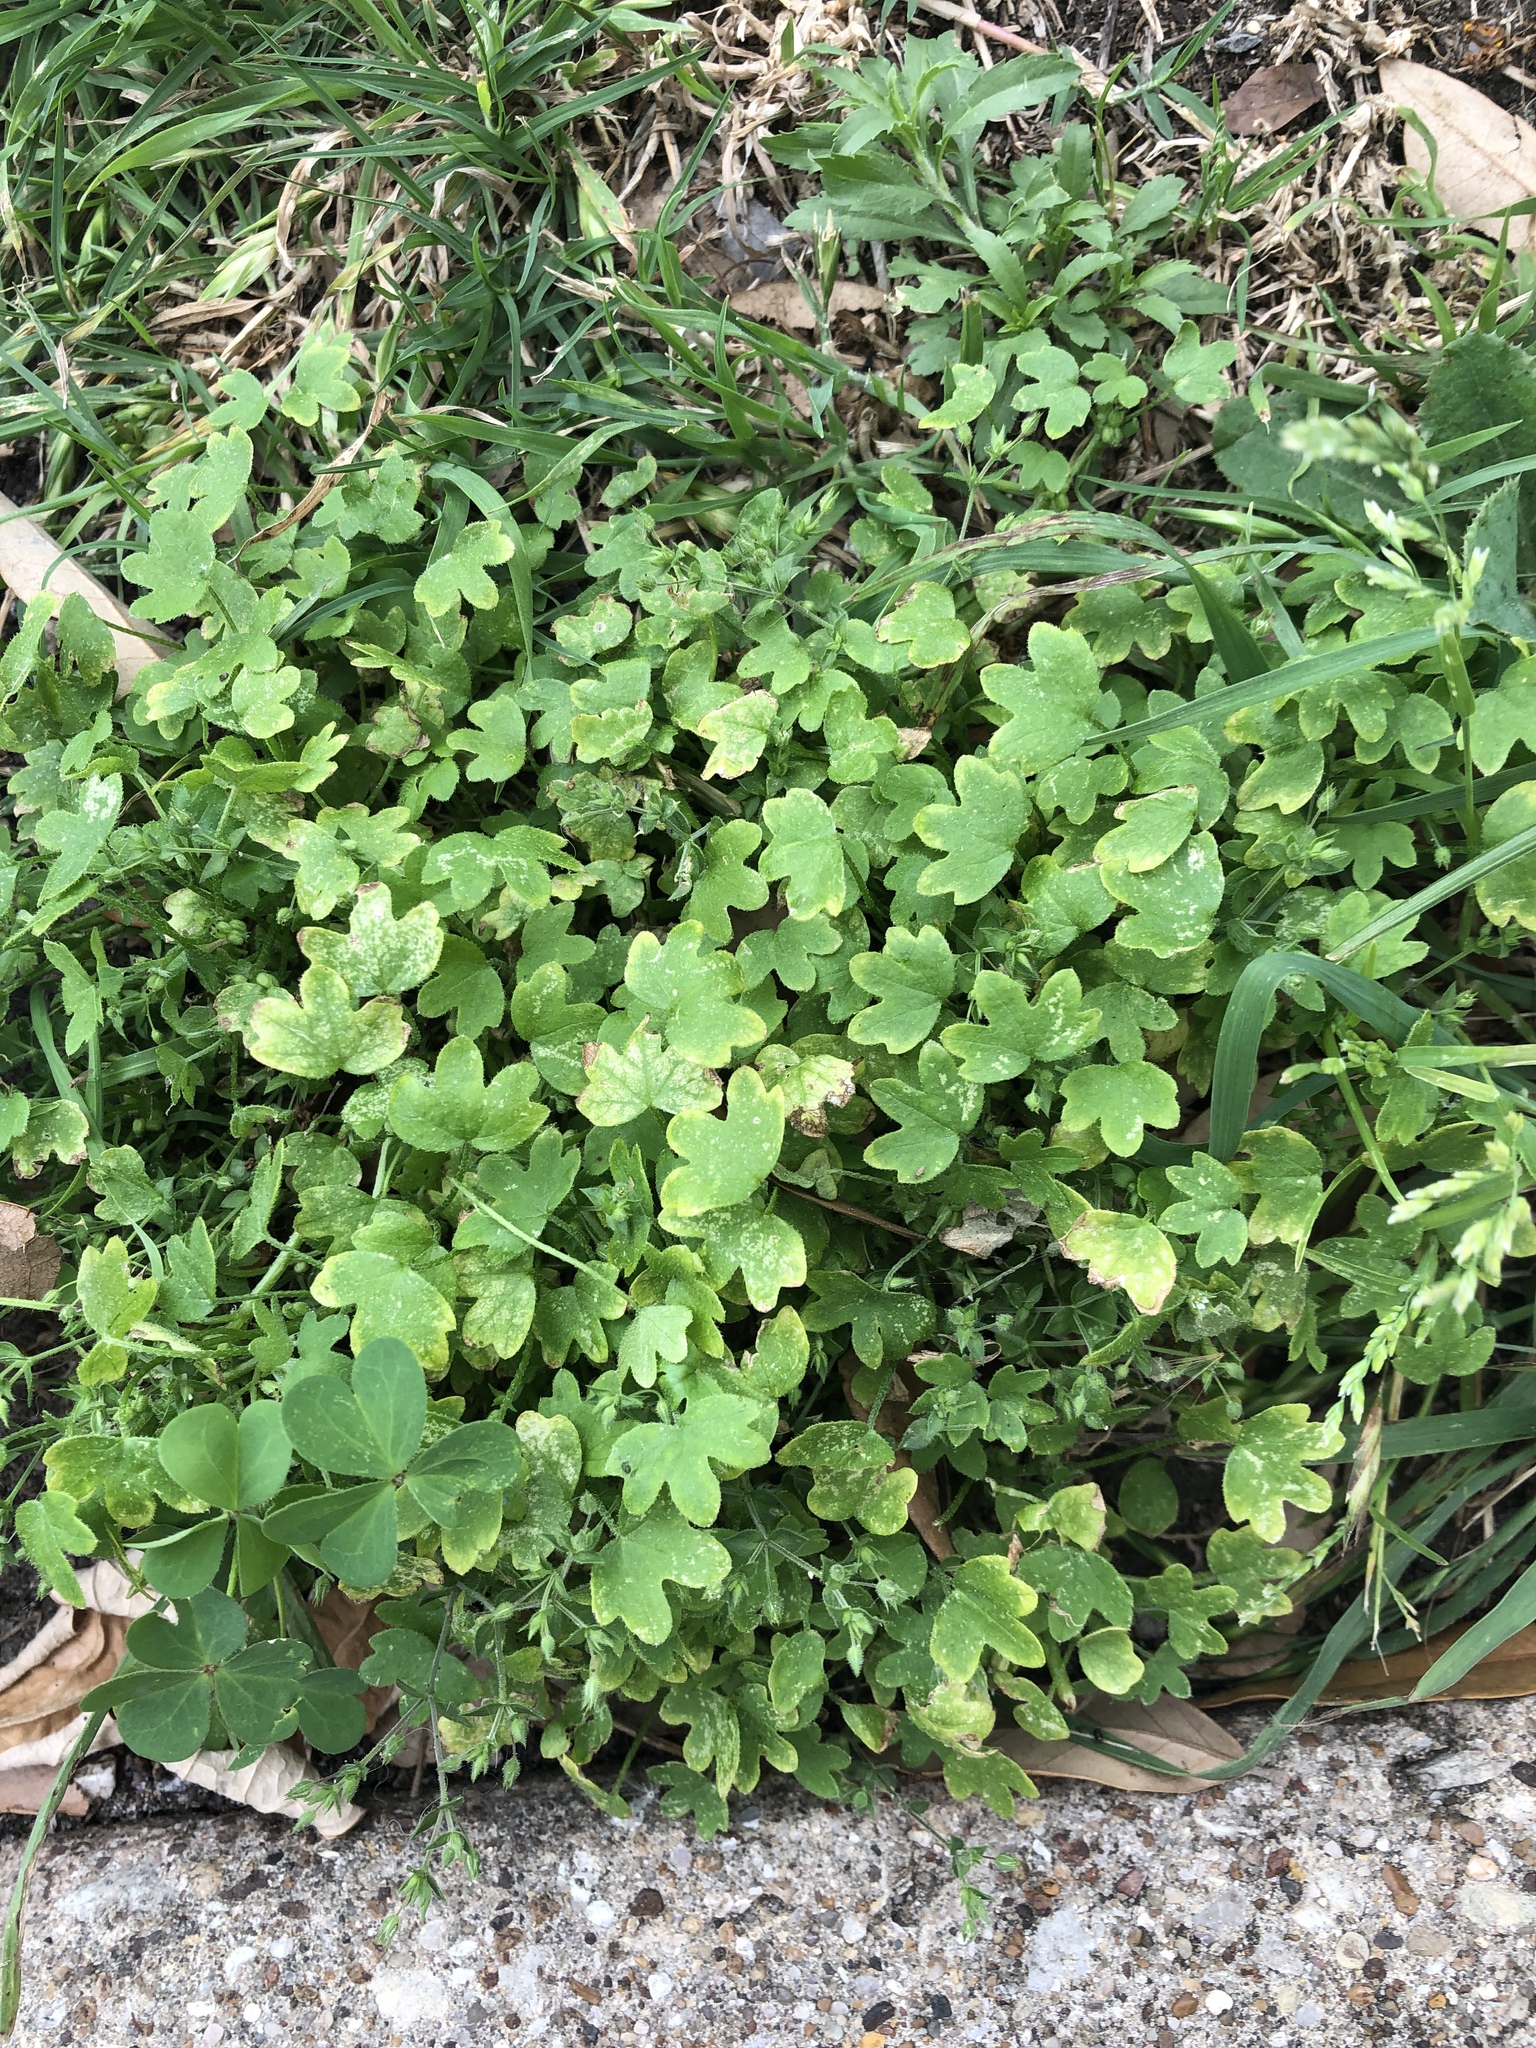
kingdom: Plantae
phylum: Tracheophyta
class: Magnoliopsida
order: Apiales
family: Apiaceae
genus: Bowlesia
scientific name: Bowlesia incana
